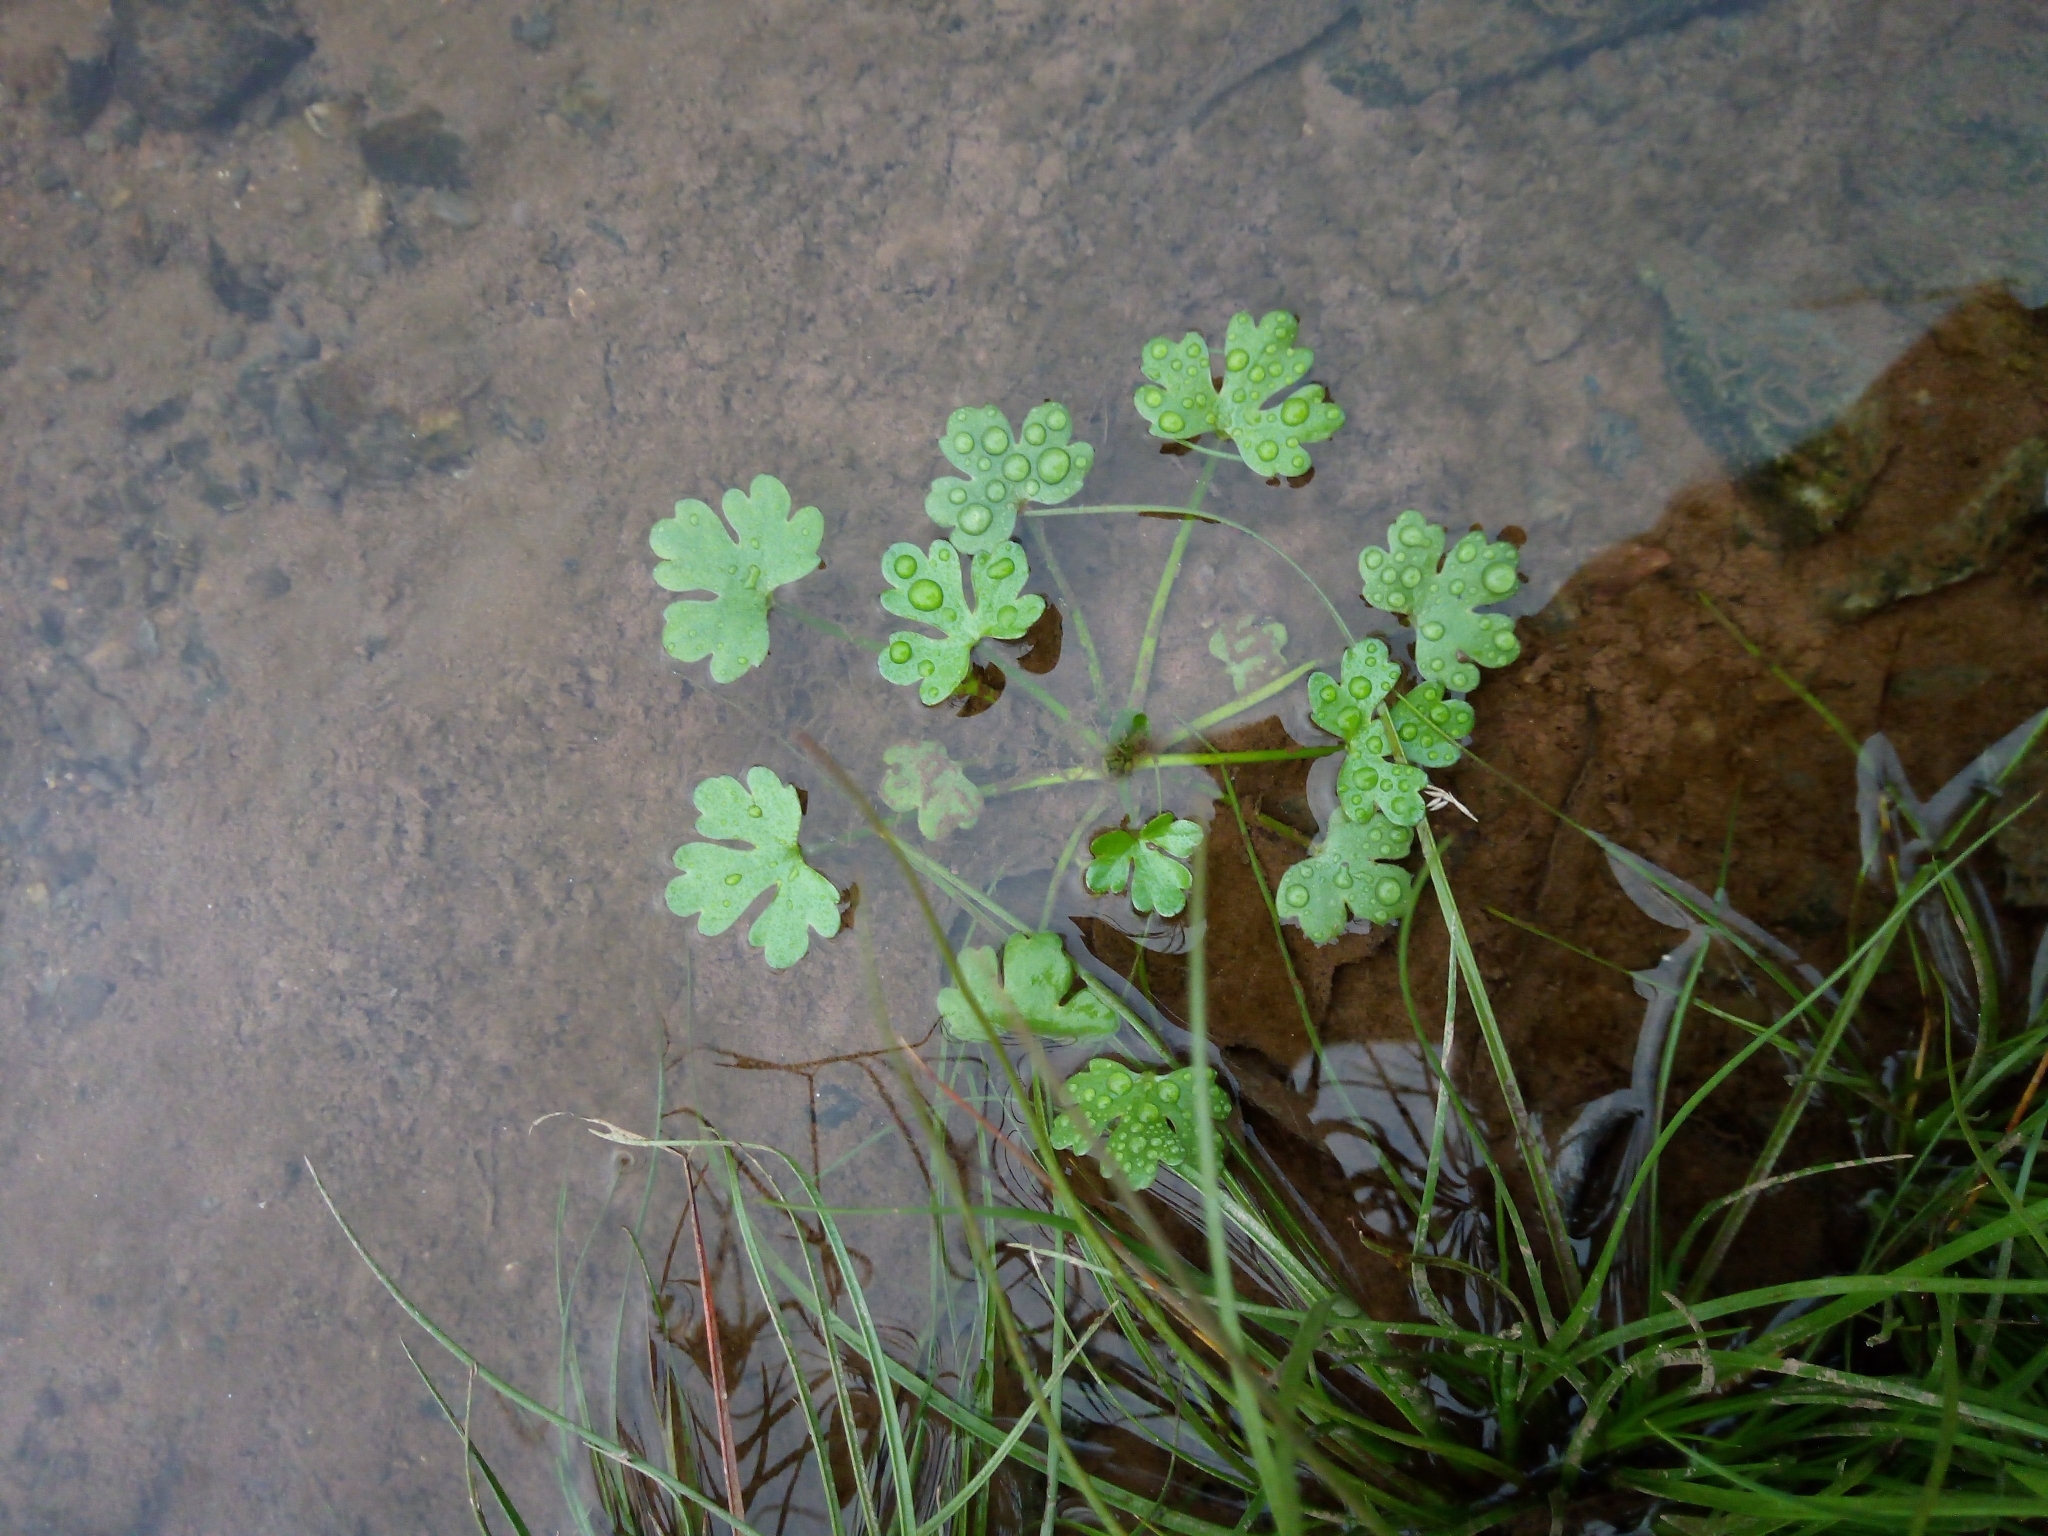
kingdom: Plantae
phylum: Tracheophyta
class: Magnoliopsida
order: Ranunculales
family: Ranunculaceae
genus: Ranunculus
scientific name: Ranunculus sceleratus
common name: Celery-leaved buttercup
